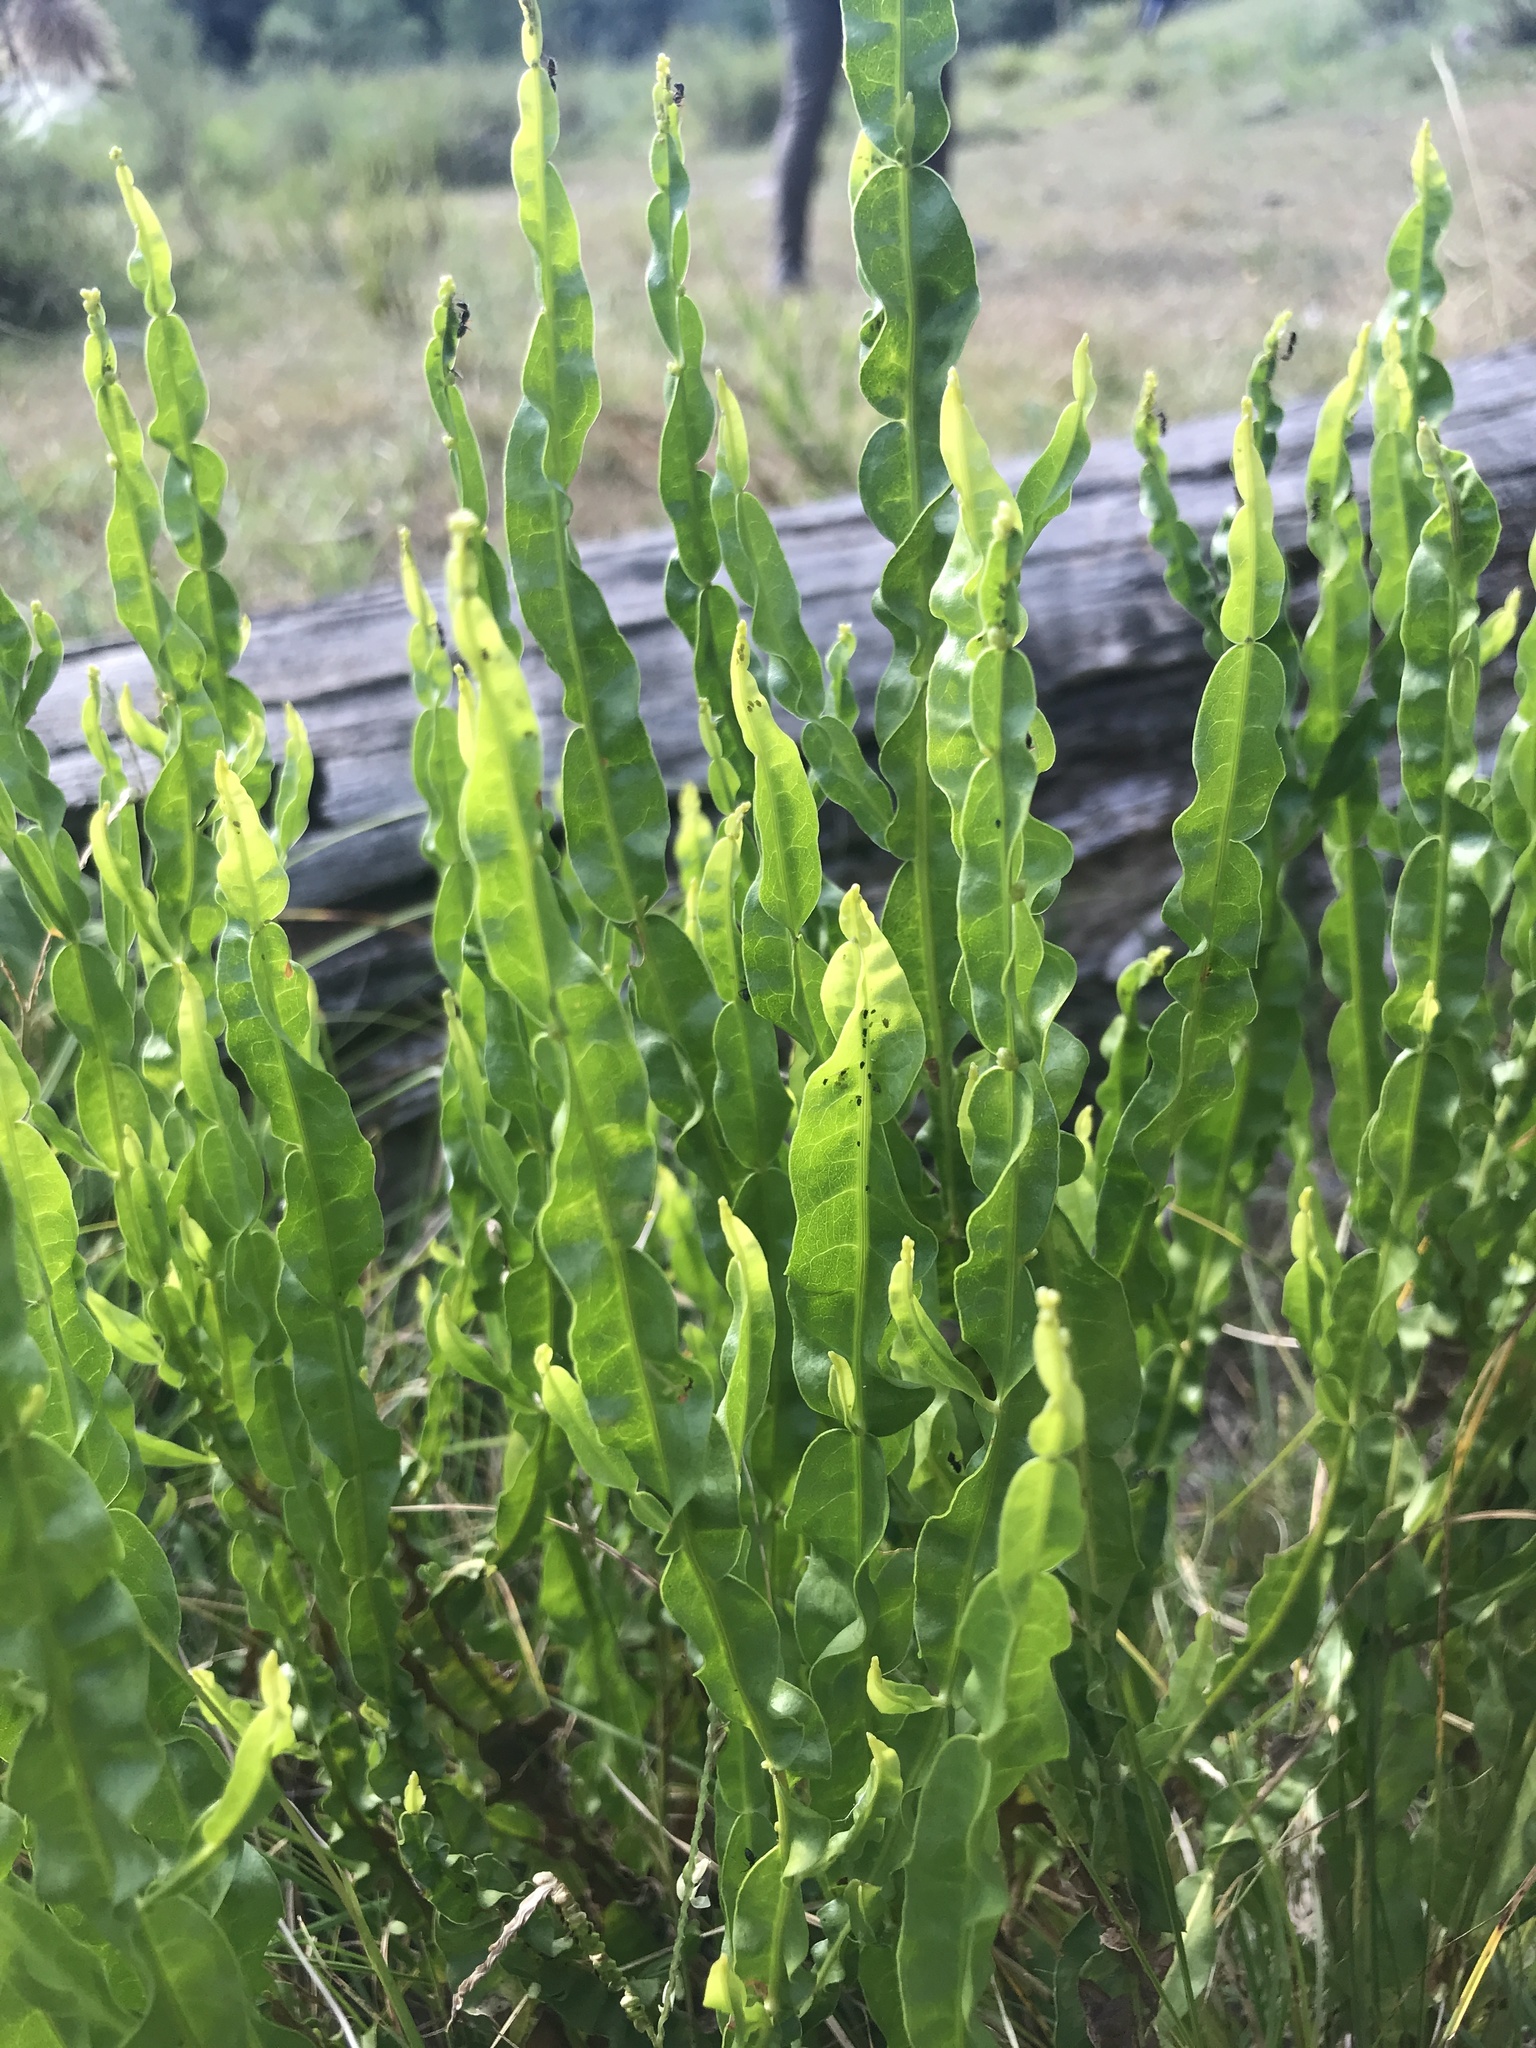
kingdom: Plantae
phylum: Tracheophyta
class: Magnoliopsida
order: Asterales
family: Asteraceae
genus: Baccharis
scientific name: Baccharis trimera
